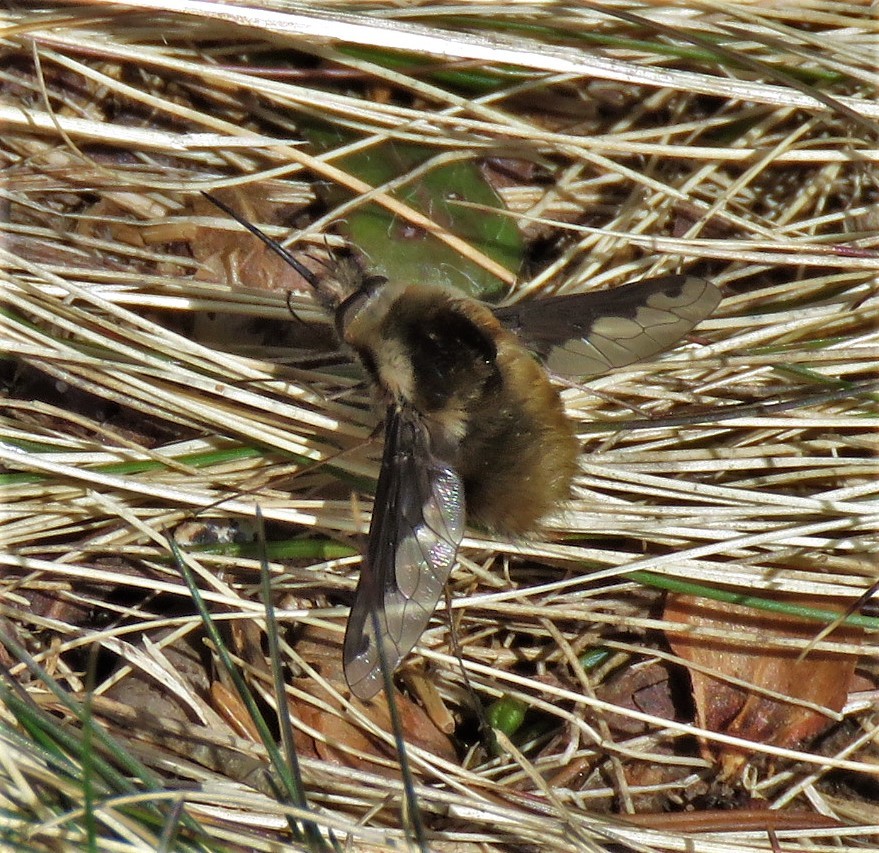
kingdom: Animalia
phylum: Arthropoda
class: Insecta
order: Diptera
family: Bombyliidae
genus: Bombylius
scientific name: Bombylius major
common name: Bee fly
